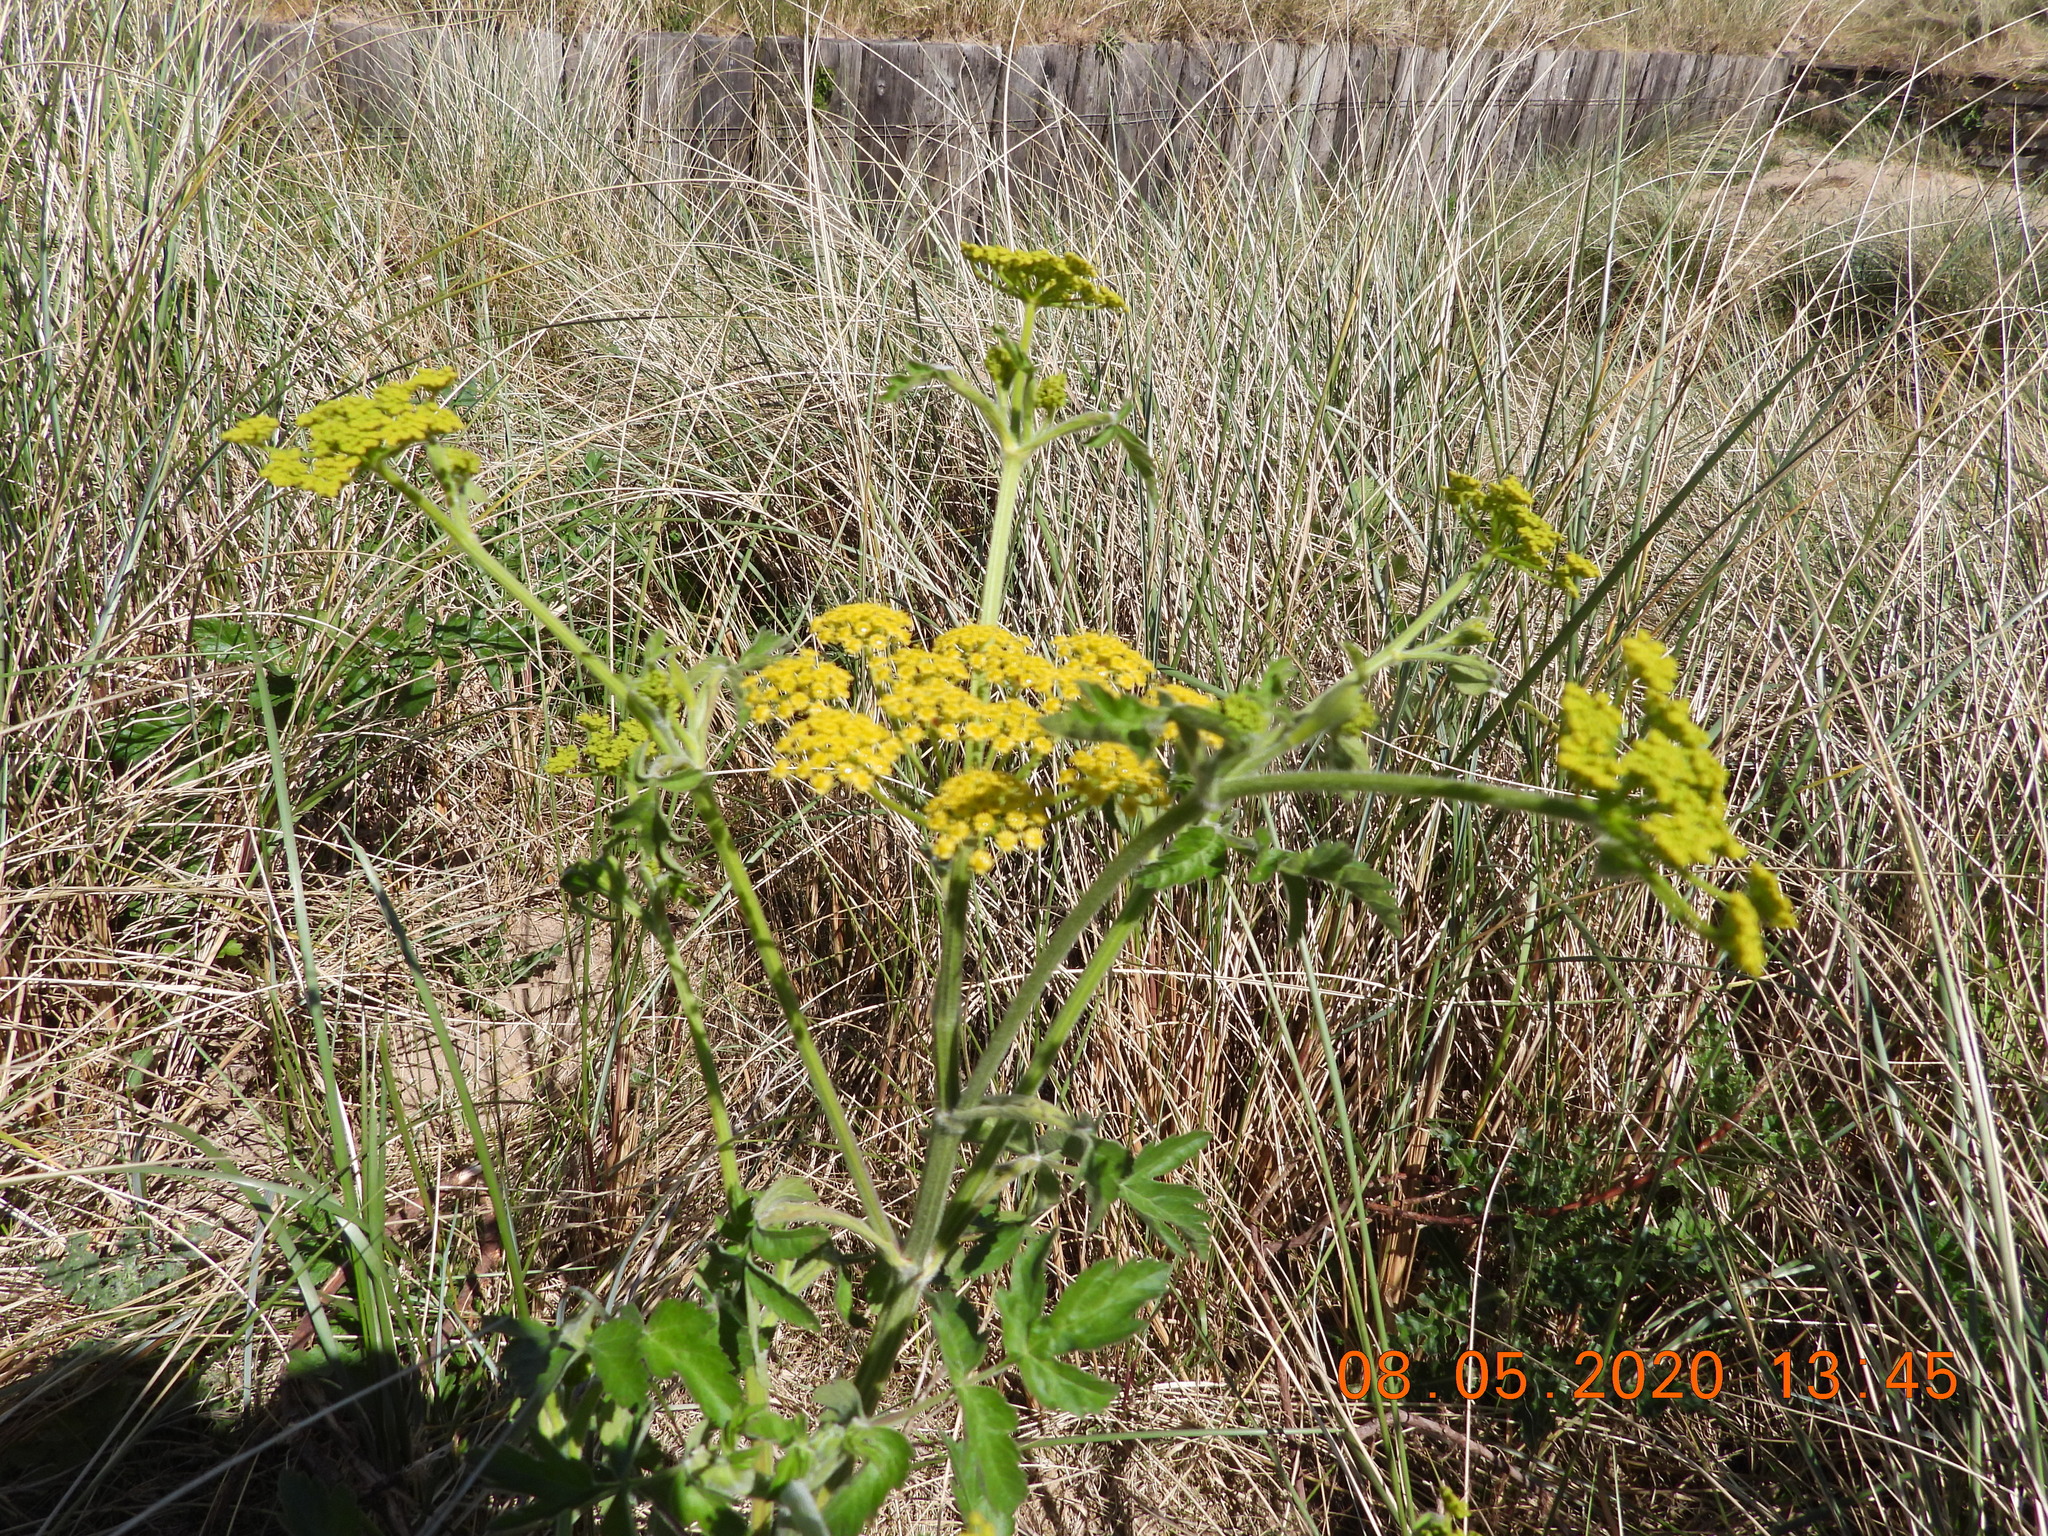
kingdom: Plantae
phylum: Tracheophyta
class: Magnoliopsida
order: Apiales
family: Apiaceae
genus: Pastinaca
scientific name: Pastinaca sativa
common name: Wild parsnip
